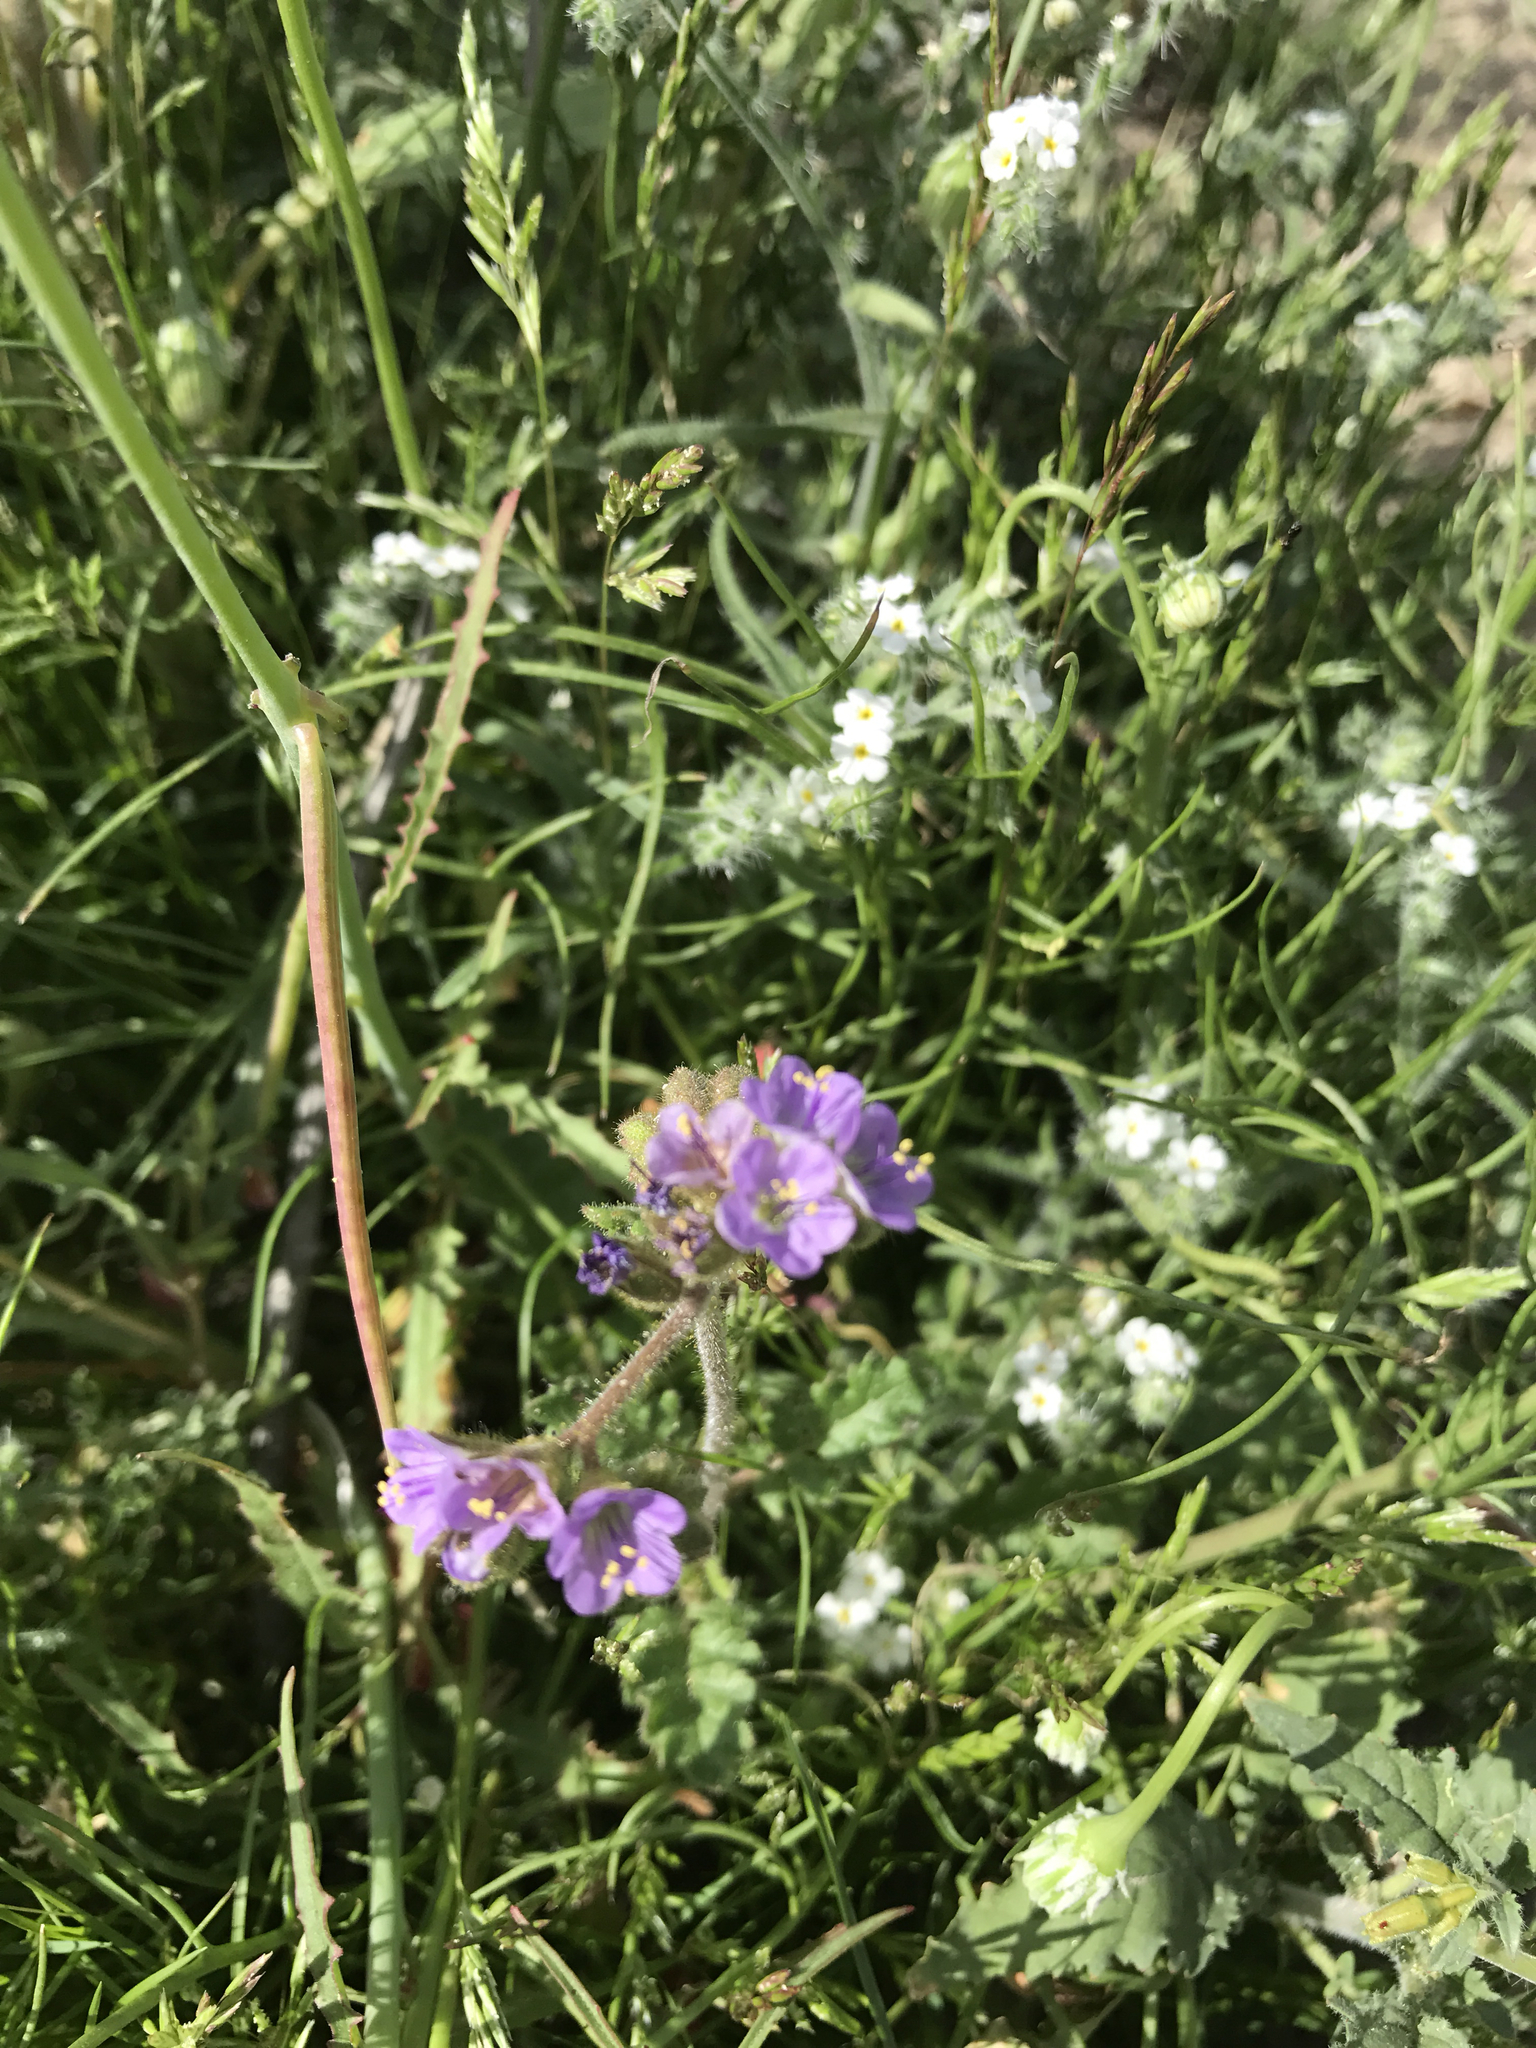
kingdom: Plantae
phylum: Tracheophyta
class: Magnoliopsida
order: Boraginales
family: Hydrophyllaceae
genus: Phacelia
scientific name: Phacelia crenulata
